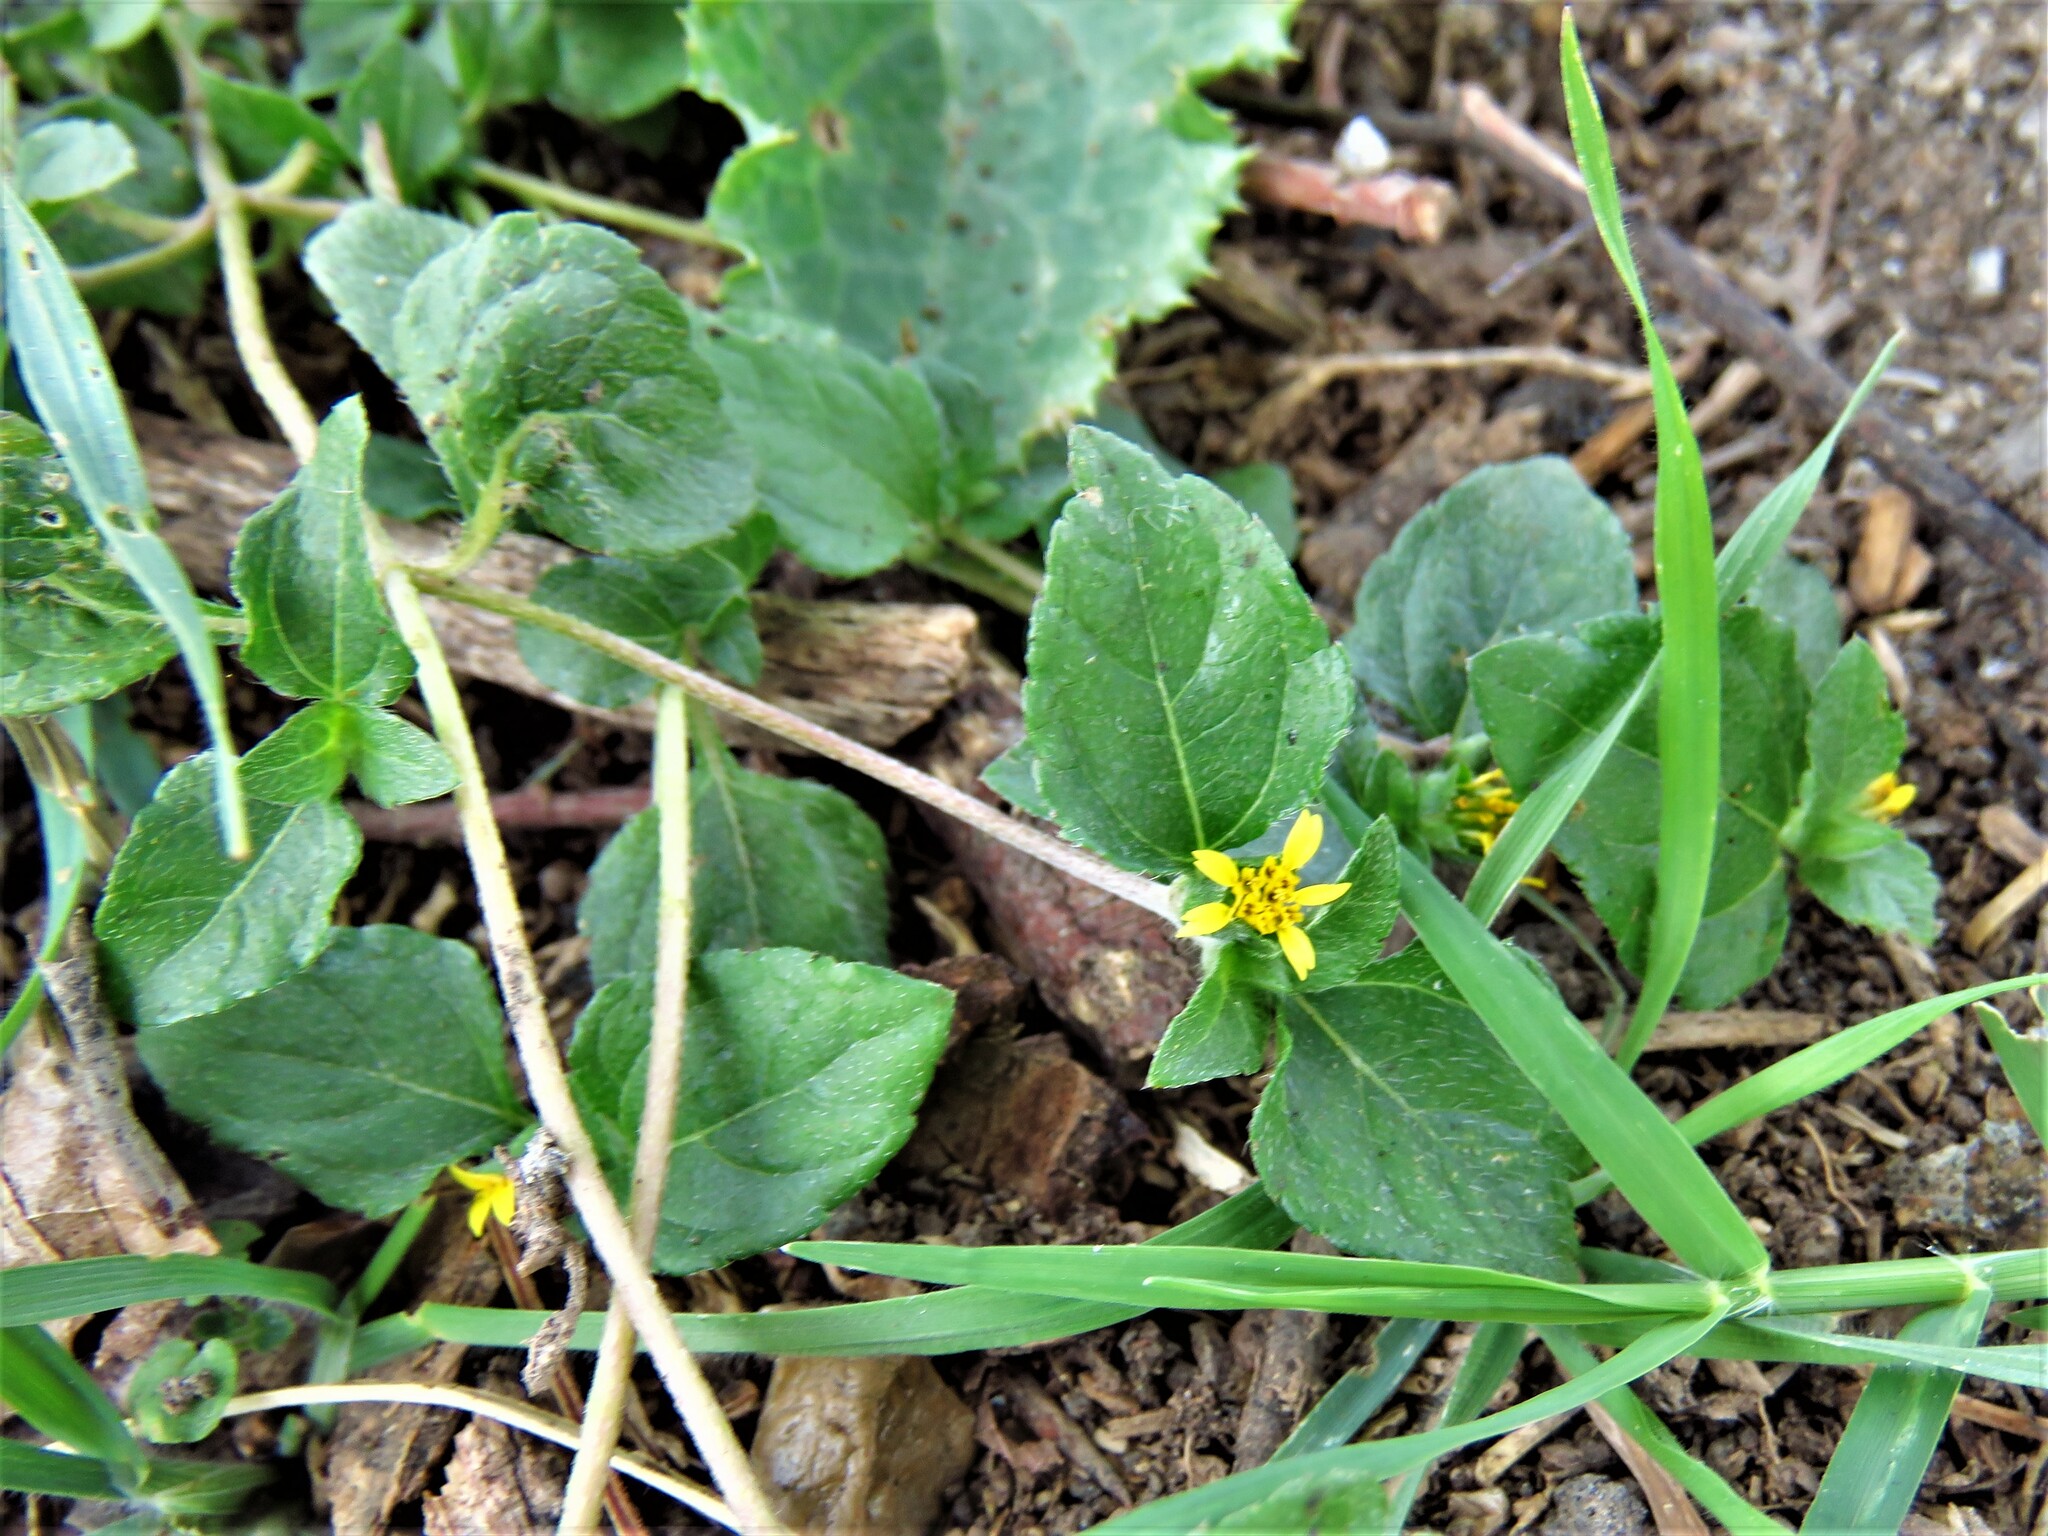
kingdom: Plantae
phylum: Tracheophyta
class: Magnoliopsida
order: Asterales
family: Asteraceae
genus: Calyptocarpus
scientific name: Calyptocarpus vialis
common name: Straggler daisy
